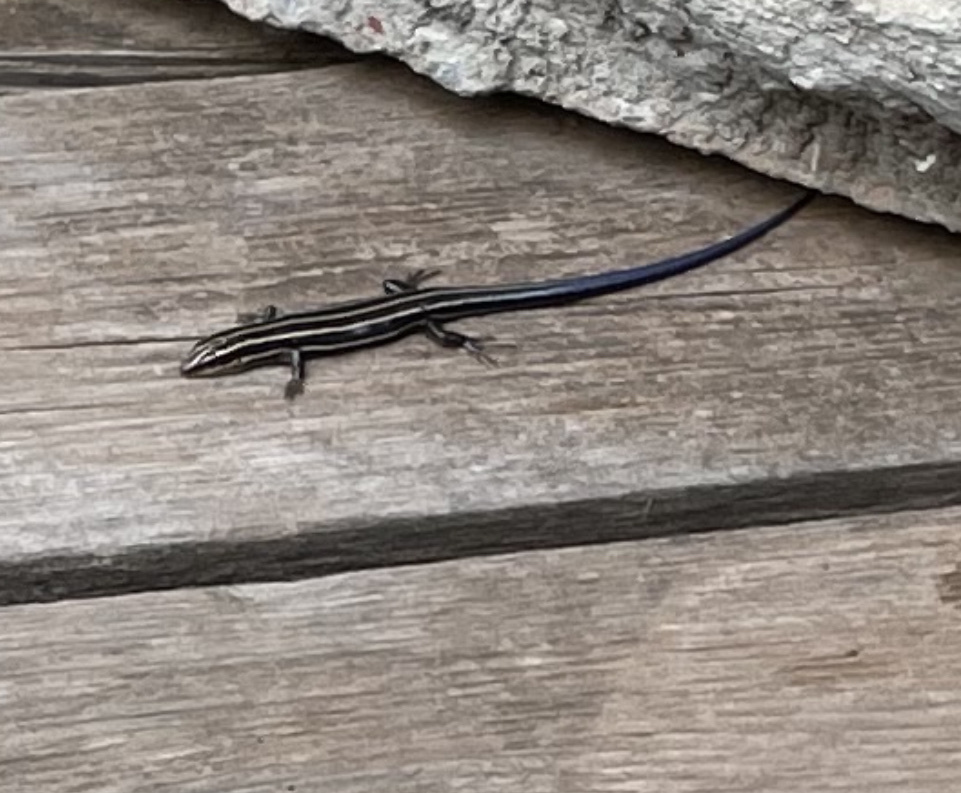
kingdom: Animalia
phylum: Chordata
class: Squamata
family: Scincidae
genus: Plestiodon
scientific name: Plestiodon fasciatus
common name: Five-lined skink
